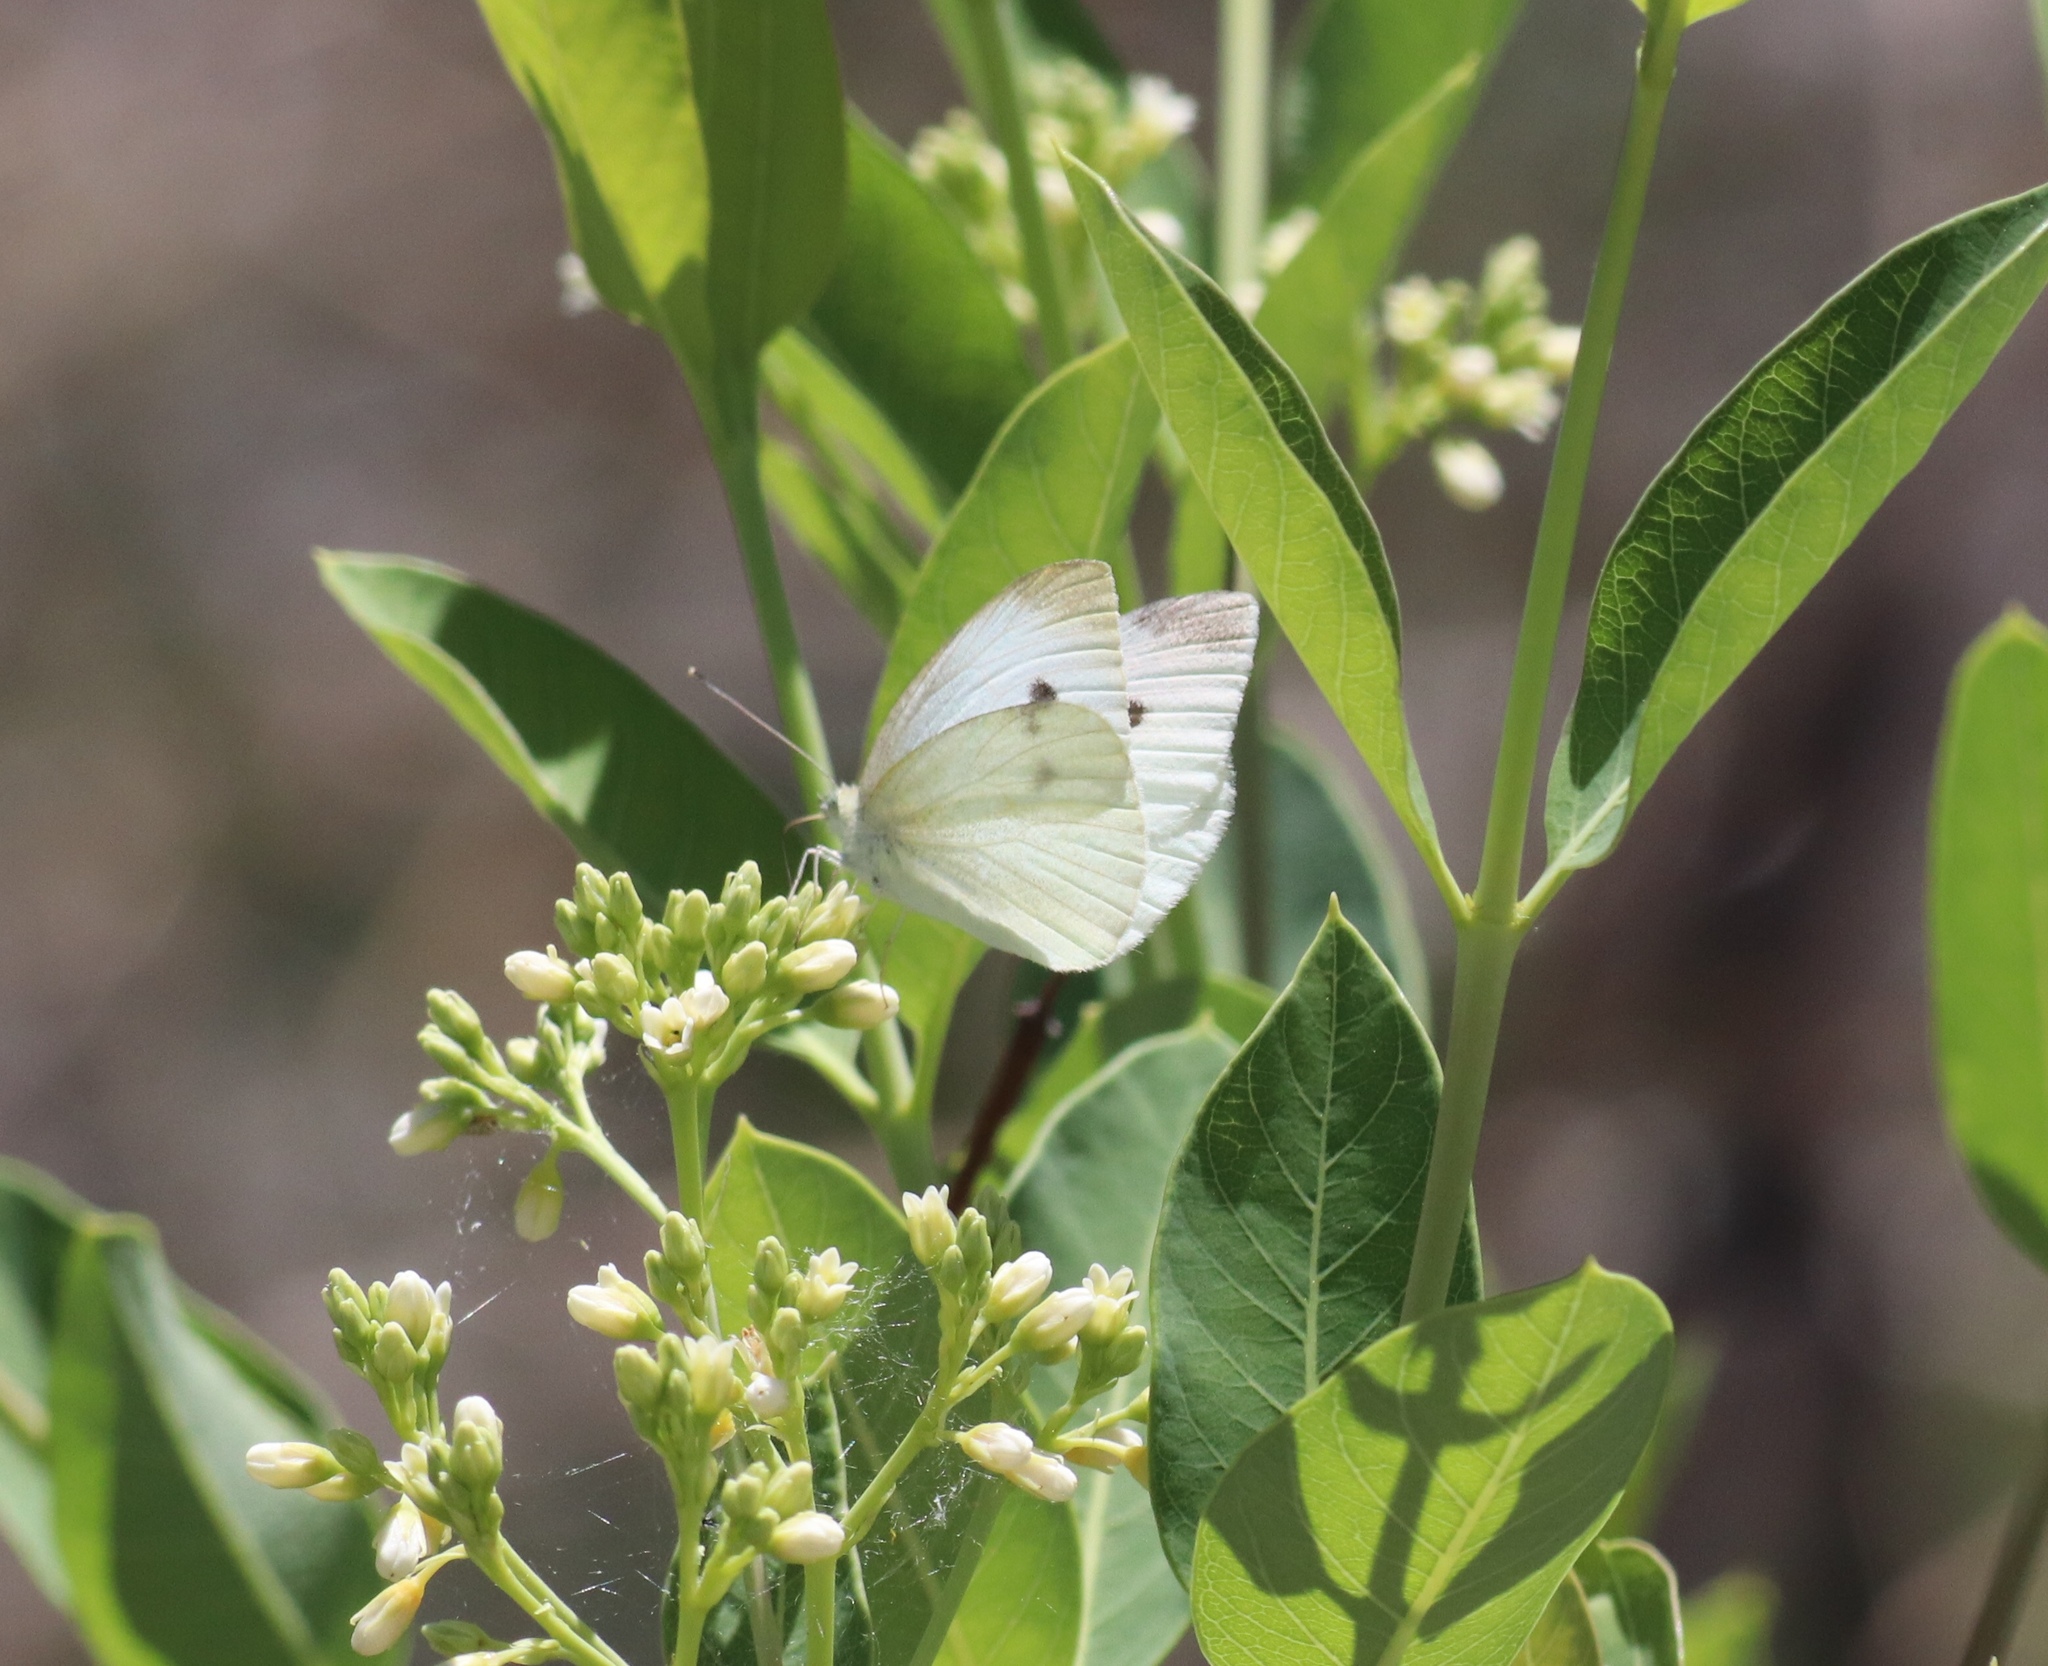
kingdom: Animalia
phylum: Arthropoda
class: Insecta
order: Lepidoptera
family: Pieridae
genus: Pieris
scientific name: Pieris rapae
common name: Small white
